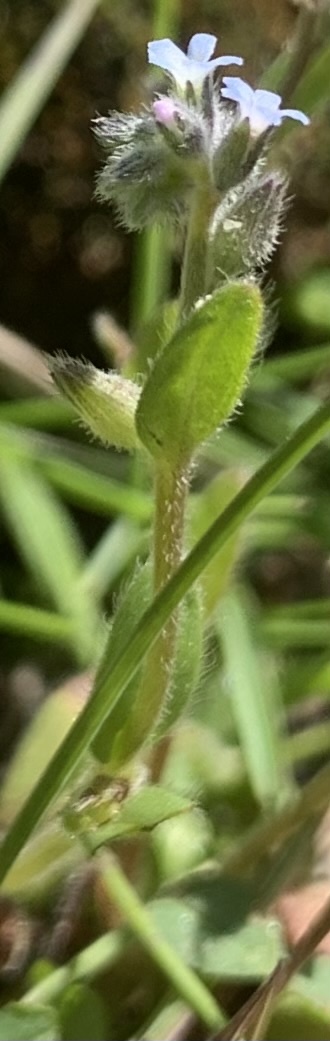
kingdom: Plantae
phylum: Tracheophyta
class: Magnoliopsida
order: Boraginales
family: Boraginaceae
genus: Myosotis
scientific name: Myosotis stricta
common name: Strict forget-me-not
